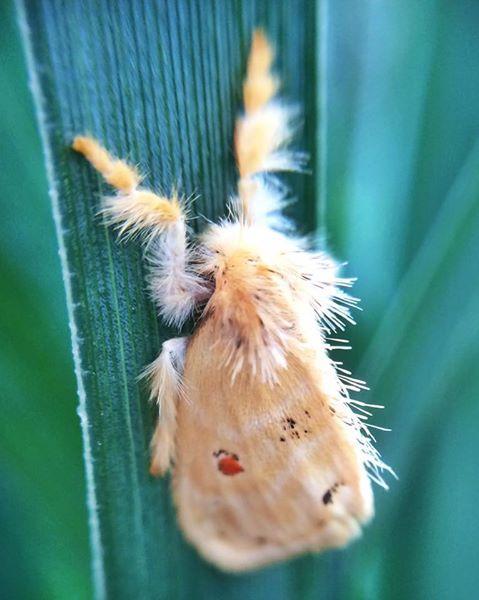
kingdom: Animalia
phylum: Arthropoda
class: Insecta
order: Lepidoptera
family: Erebidae
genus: Euproctis
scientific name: Euproctis bicolor
